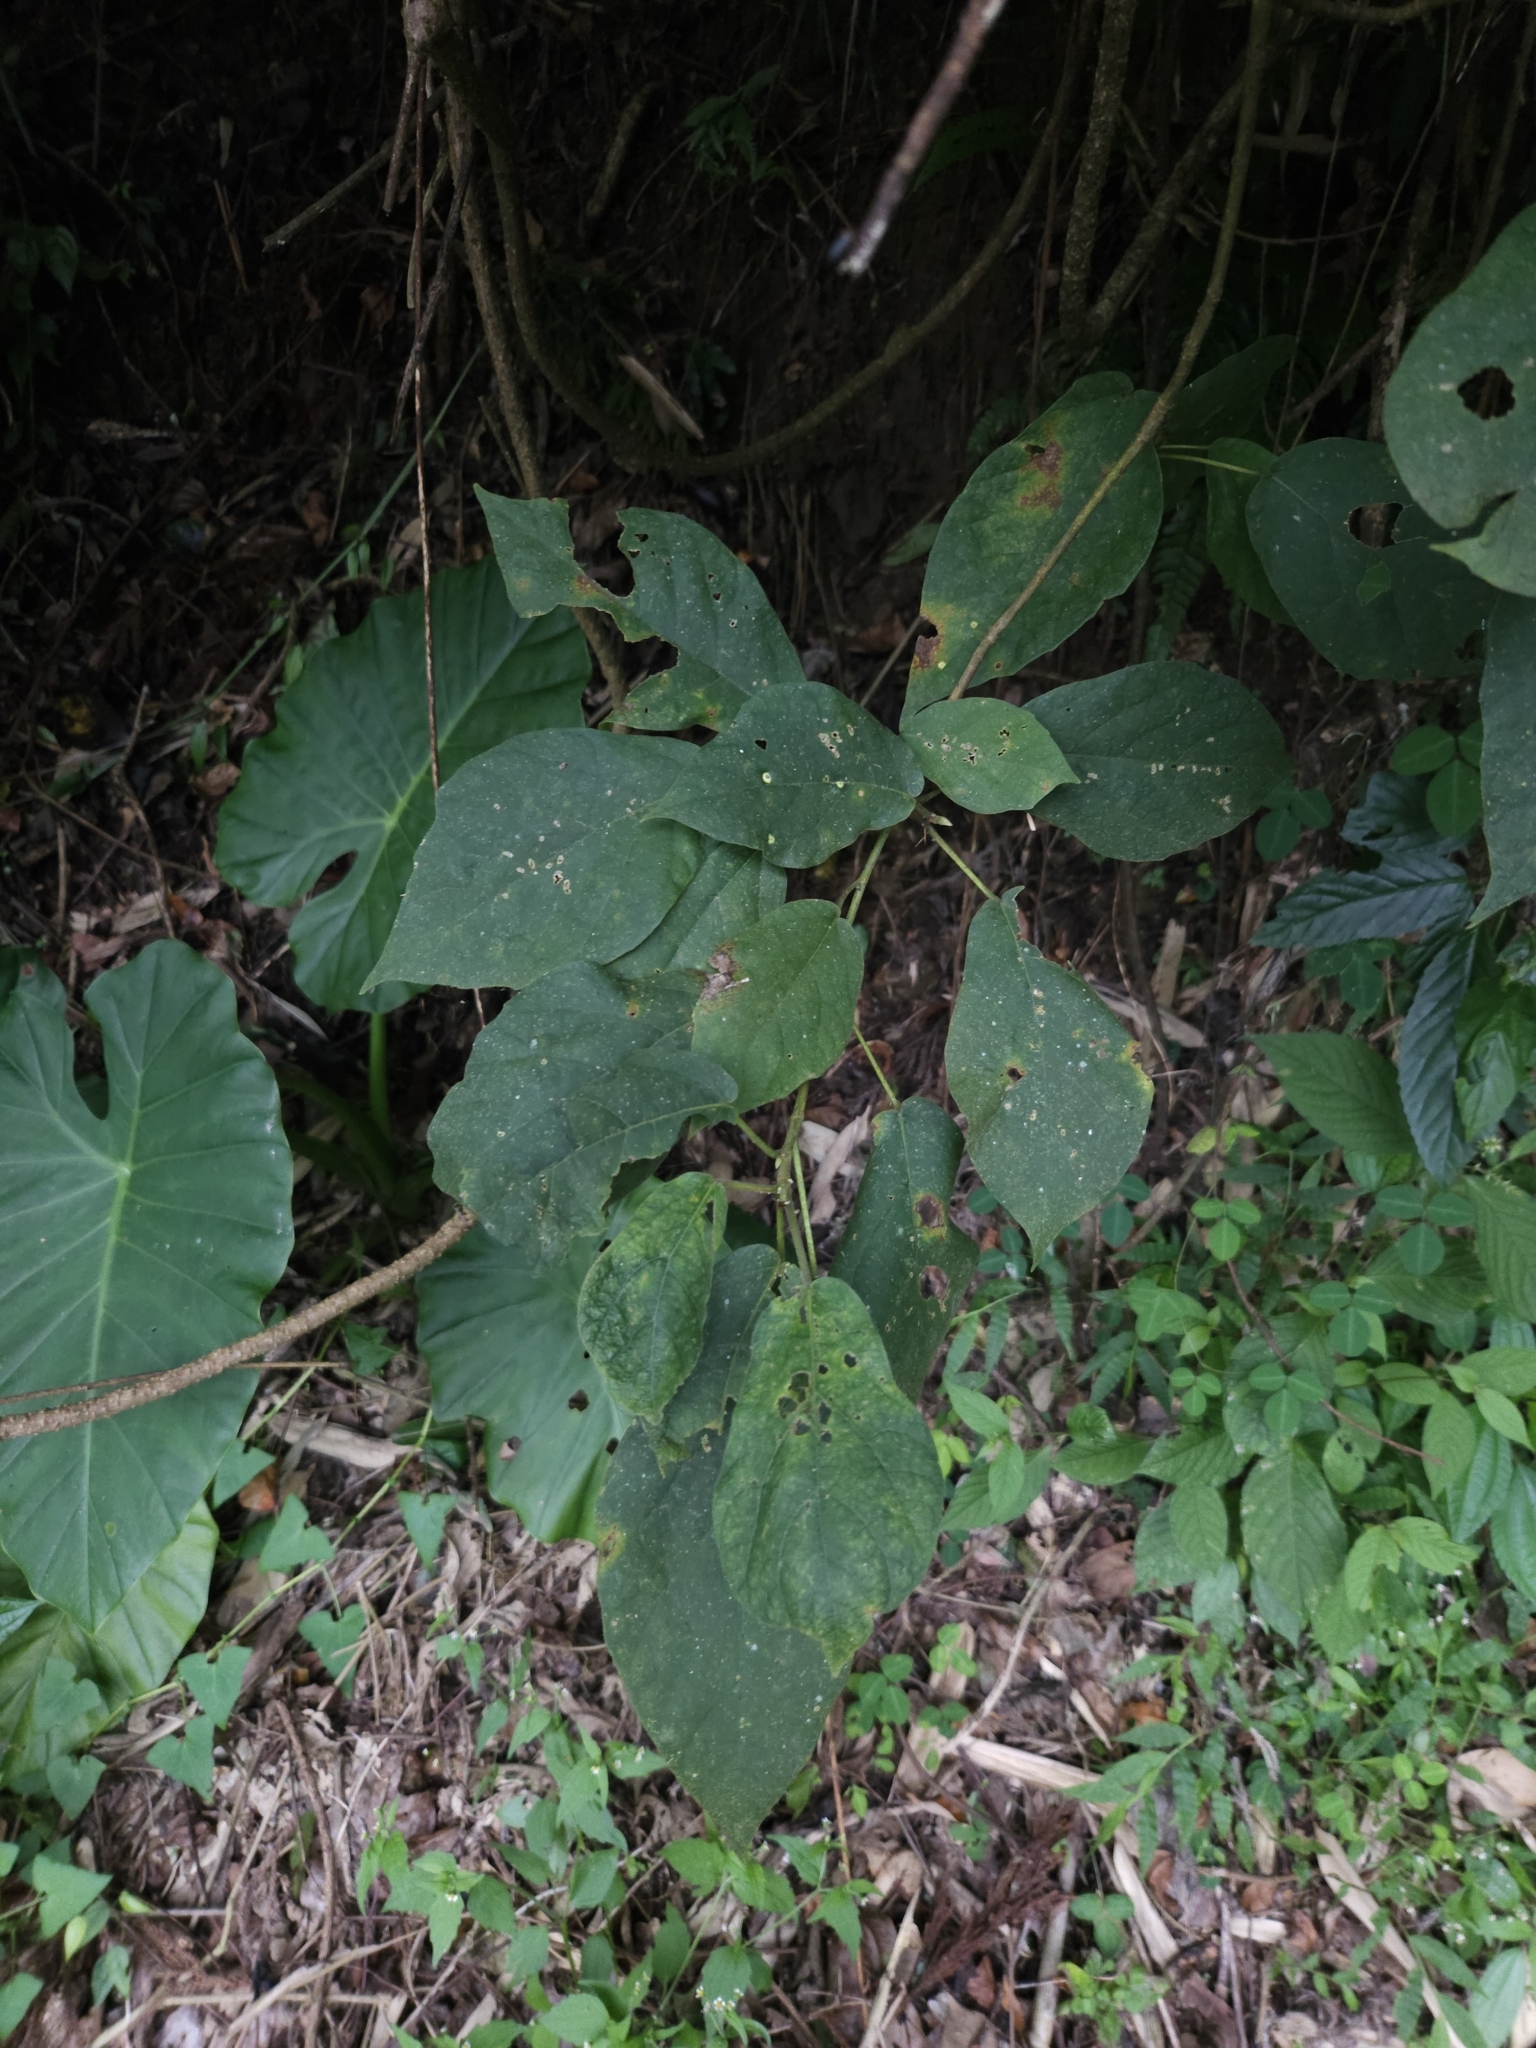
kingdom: Plantae
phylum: Tracheophyta
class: Magnoliopsida
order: Rosales
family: Moraceae
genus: Ficus
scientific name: Ficus erecta
